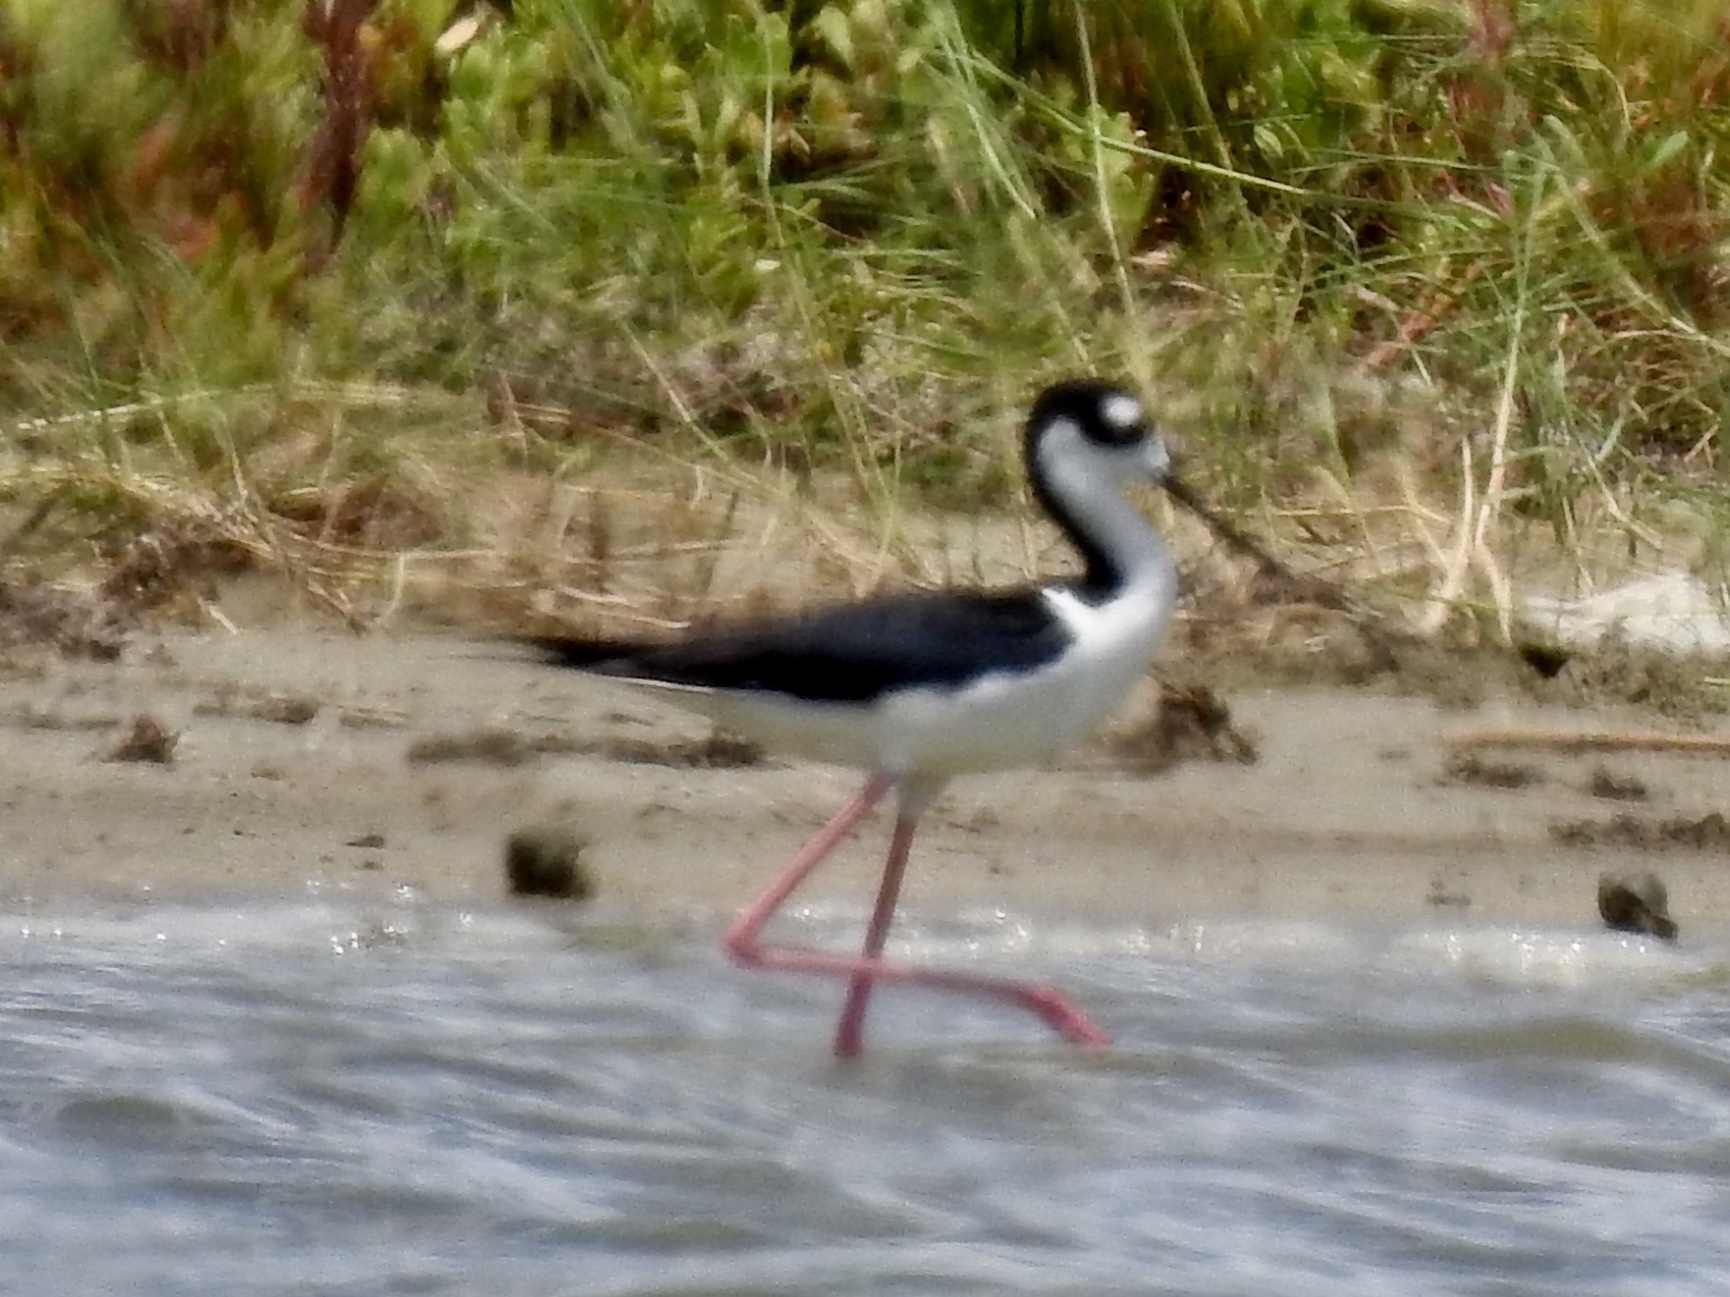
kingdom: Animalia
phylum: Chordata
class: Aves
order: Charadriiformes
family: Recurvirostridae
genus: Himantopus
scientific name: Himantopus mexicanus
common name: Black-necked stilt
